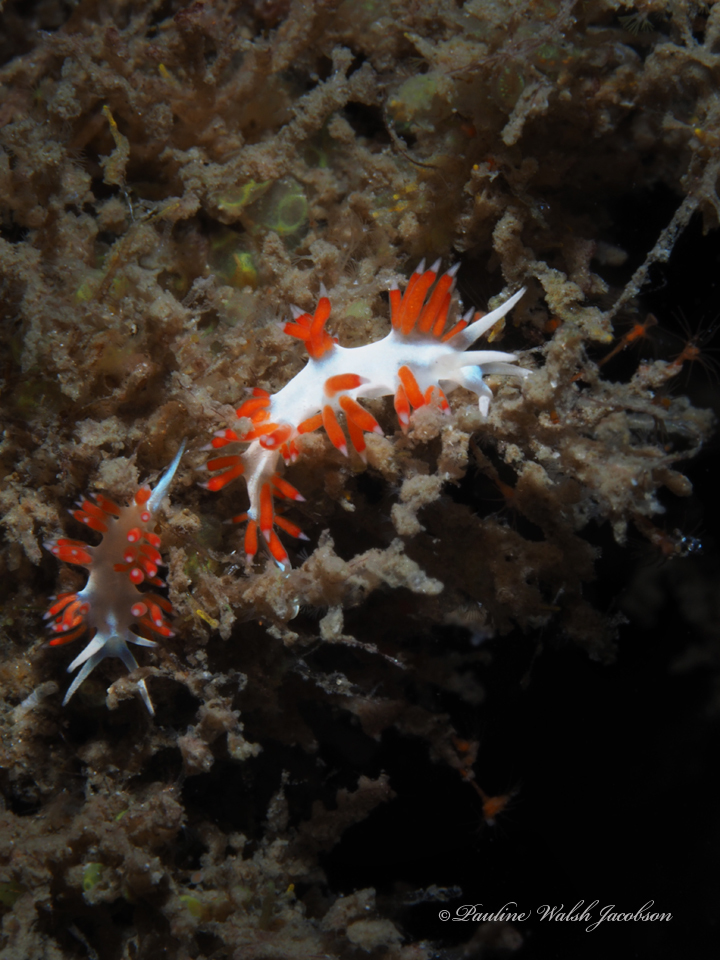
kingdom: Animalia
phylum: Mollusca
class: Gastropoda
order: Nudibranchia
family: Flabellinidae
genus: Flabellina
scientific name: Flabellina dushia
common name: Dushia flabellina
